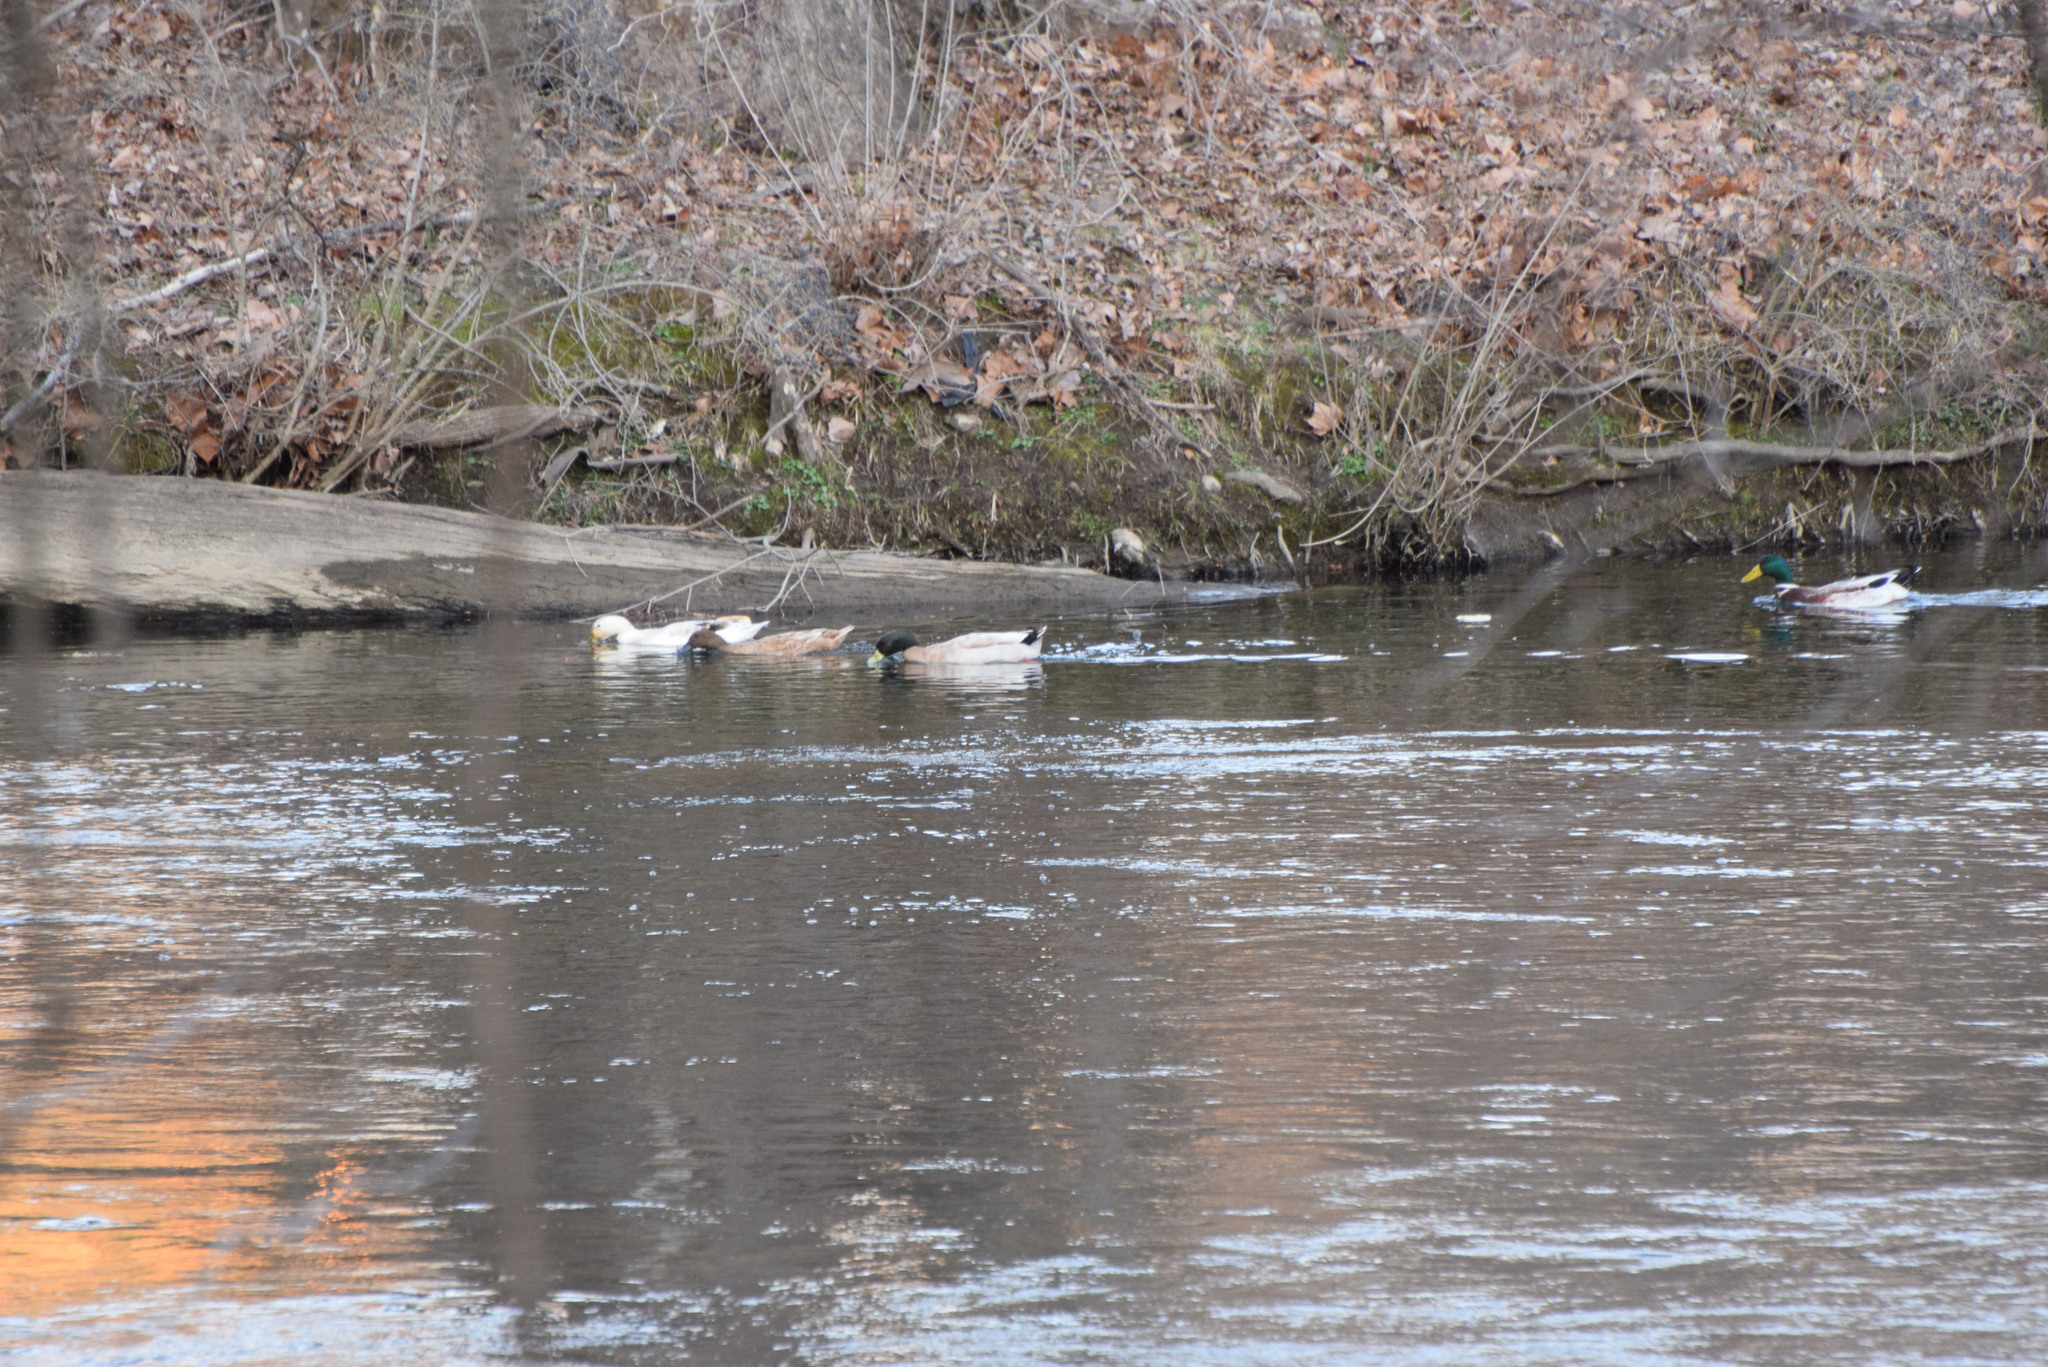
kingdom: Animalia
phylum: Chordata
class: Aves
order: Anseriformes
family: Anatidae
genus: Anas
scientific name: Anas platyrhynchos
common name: Mallard
